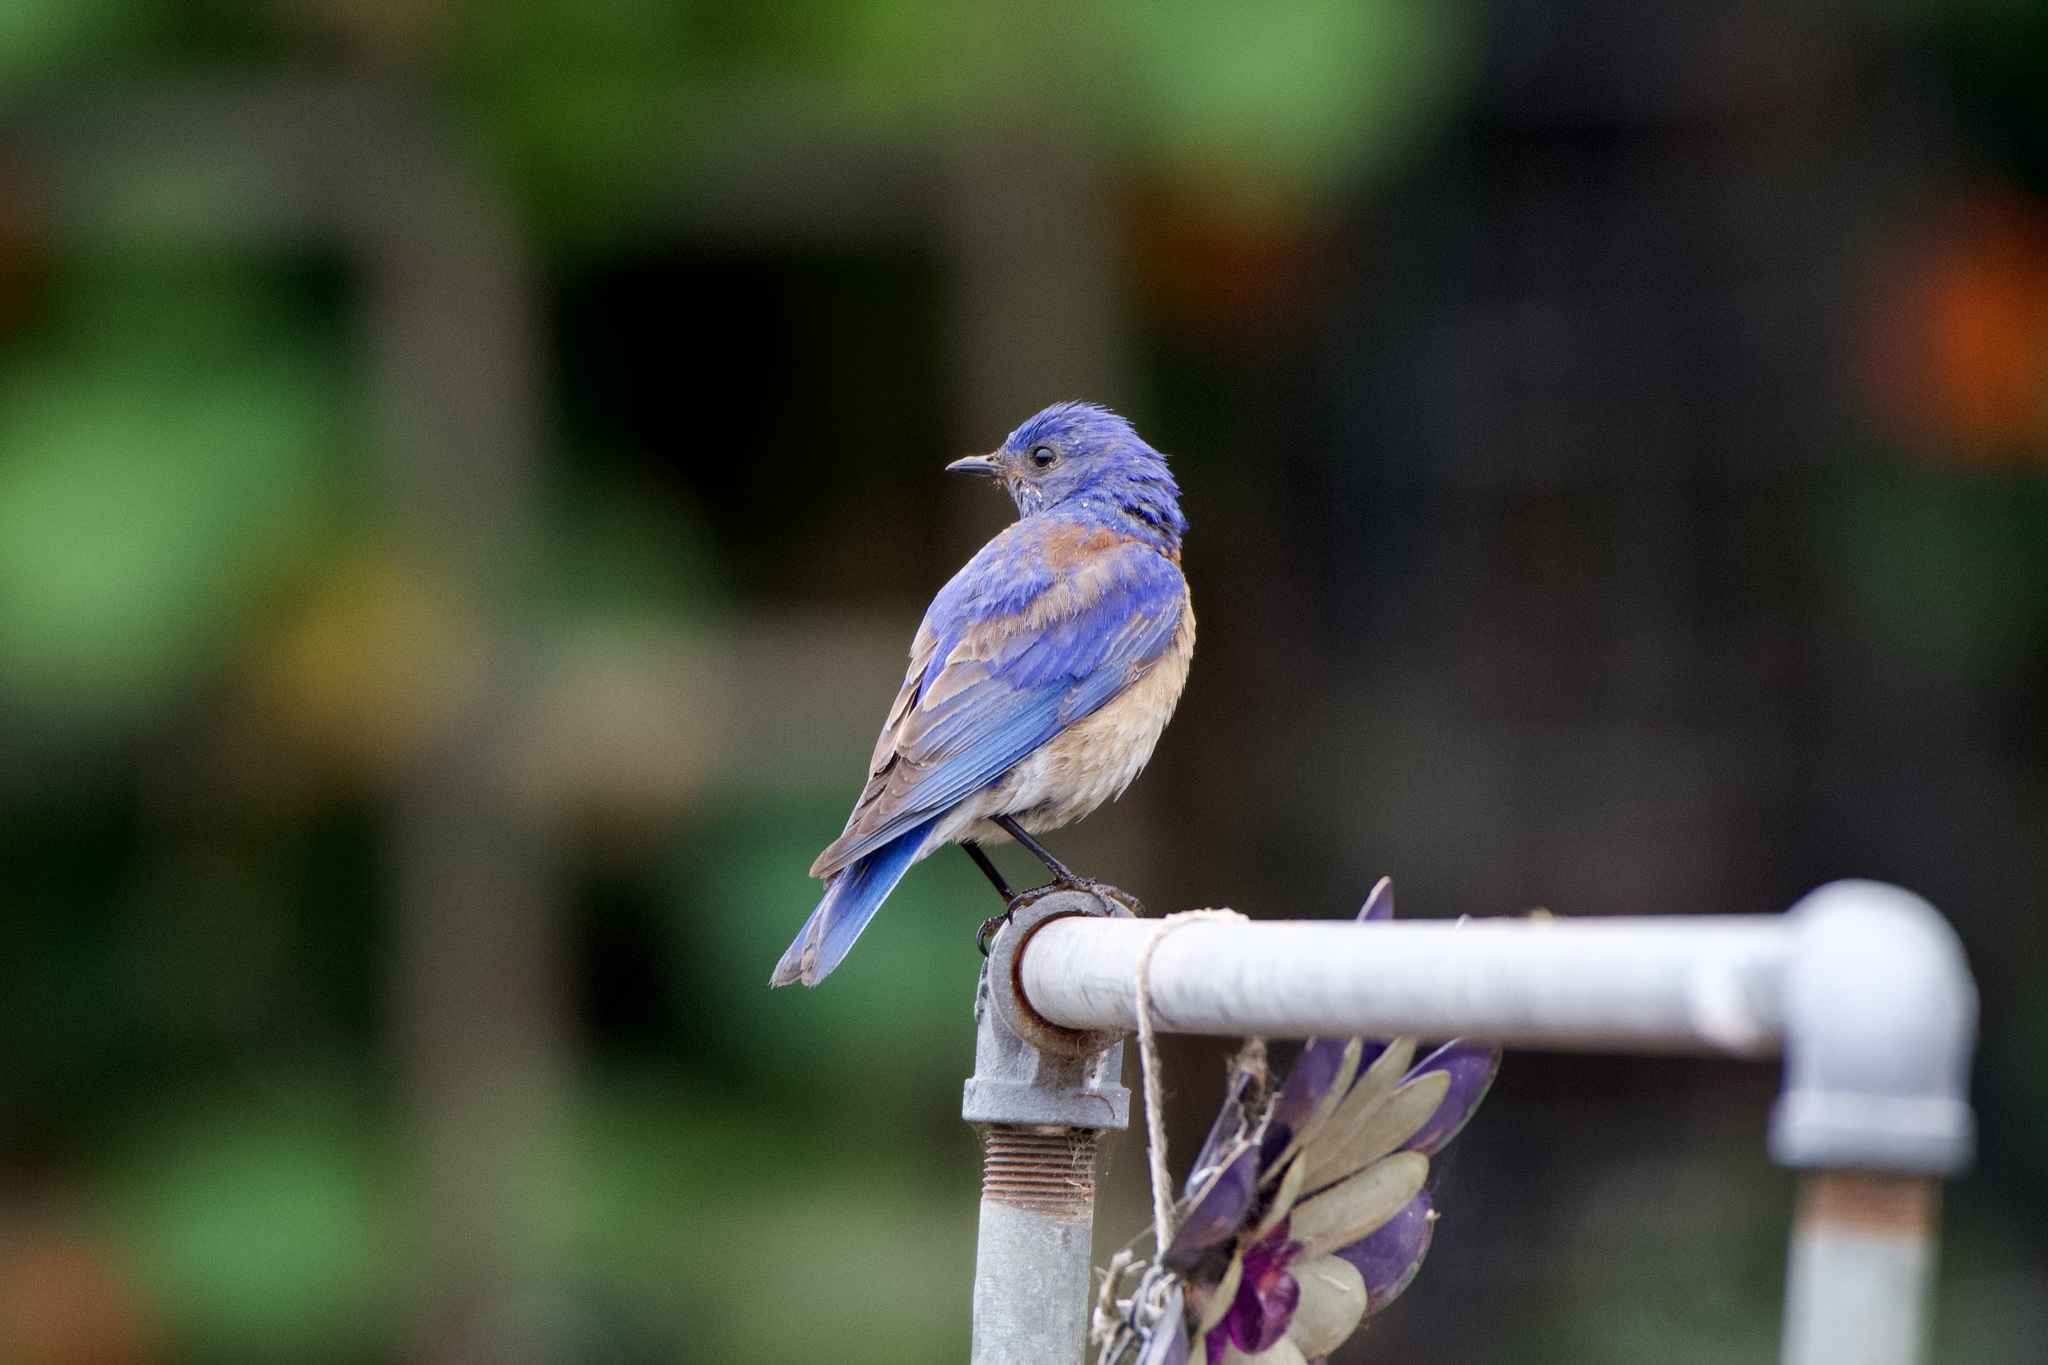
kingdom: Animalia
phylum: Chordata
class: Aves
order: Passeriformes
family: Turdidae
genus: Sialia
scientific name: Sialia mexicana
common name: Western bluebird
